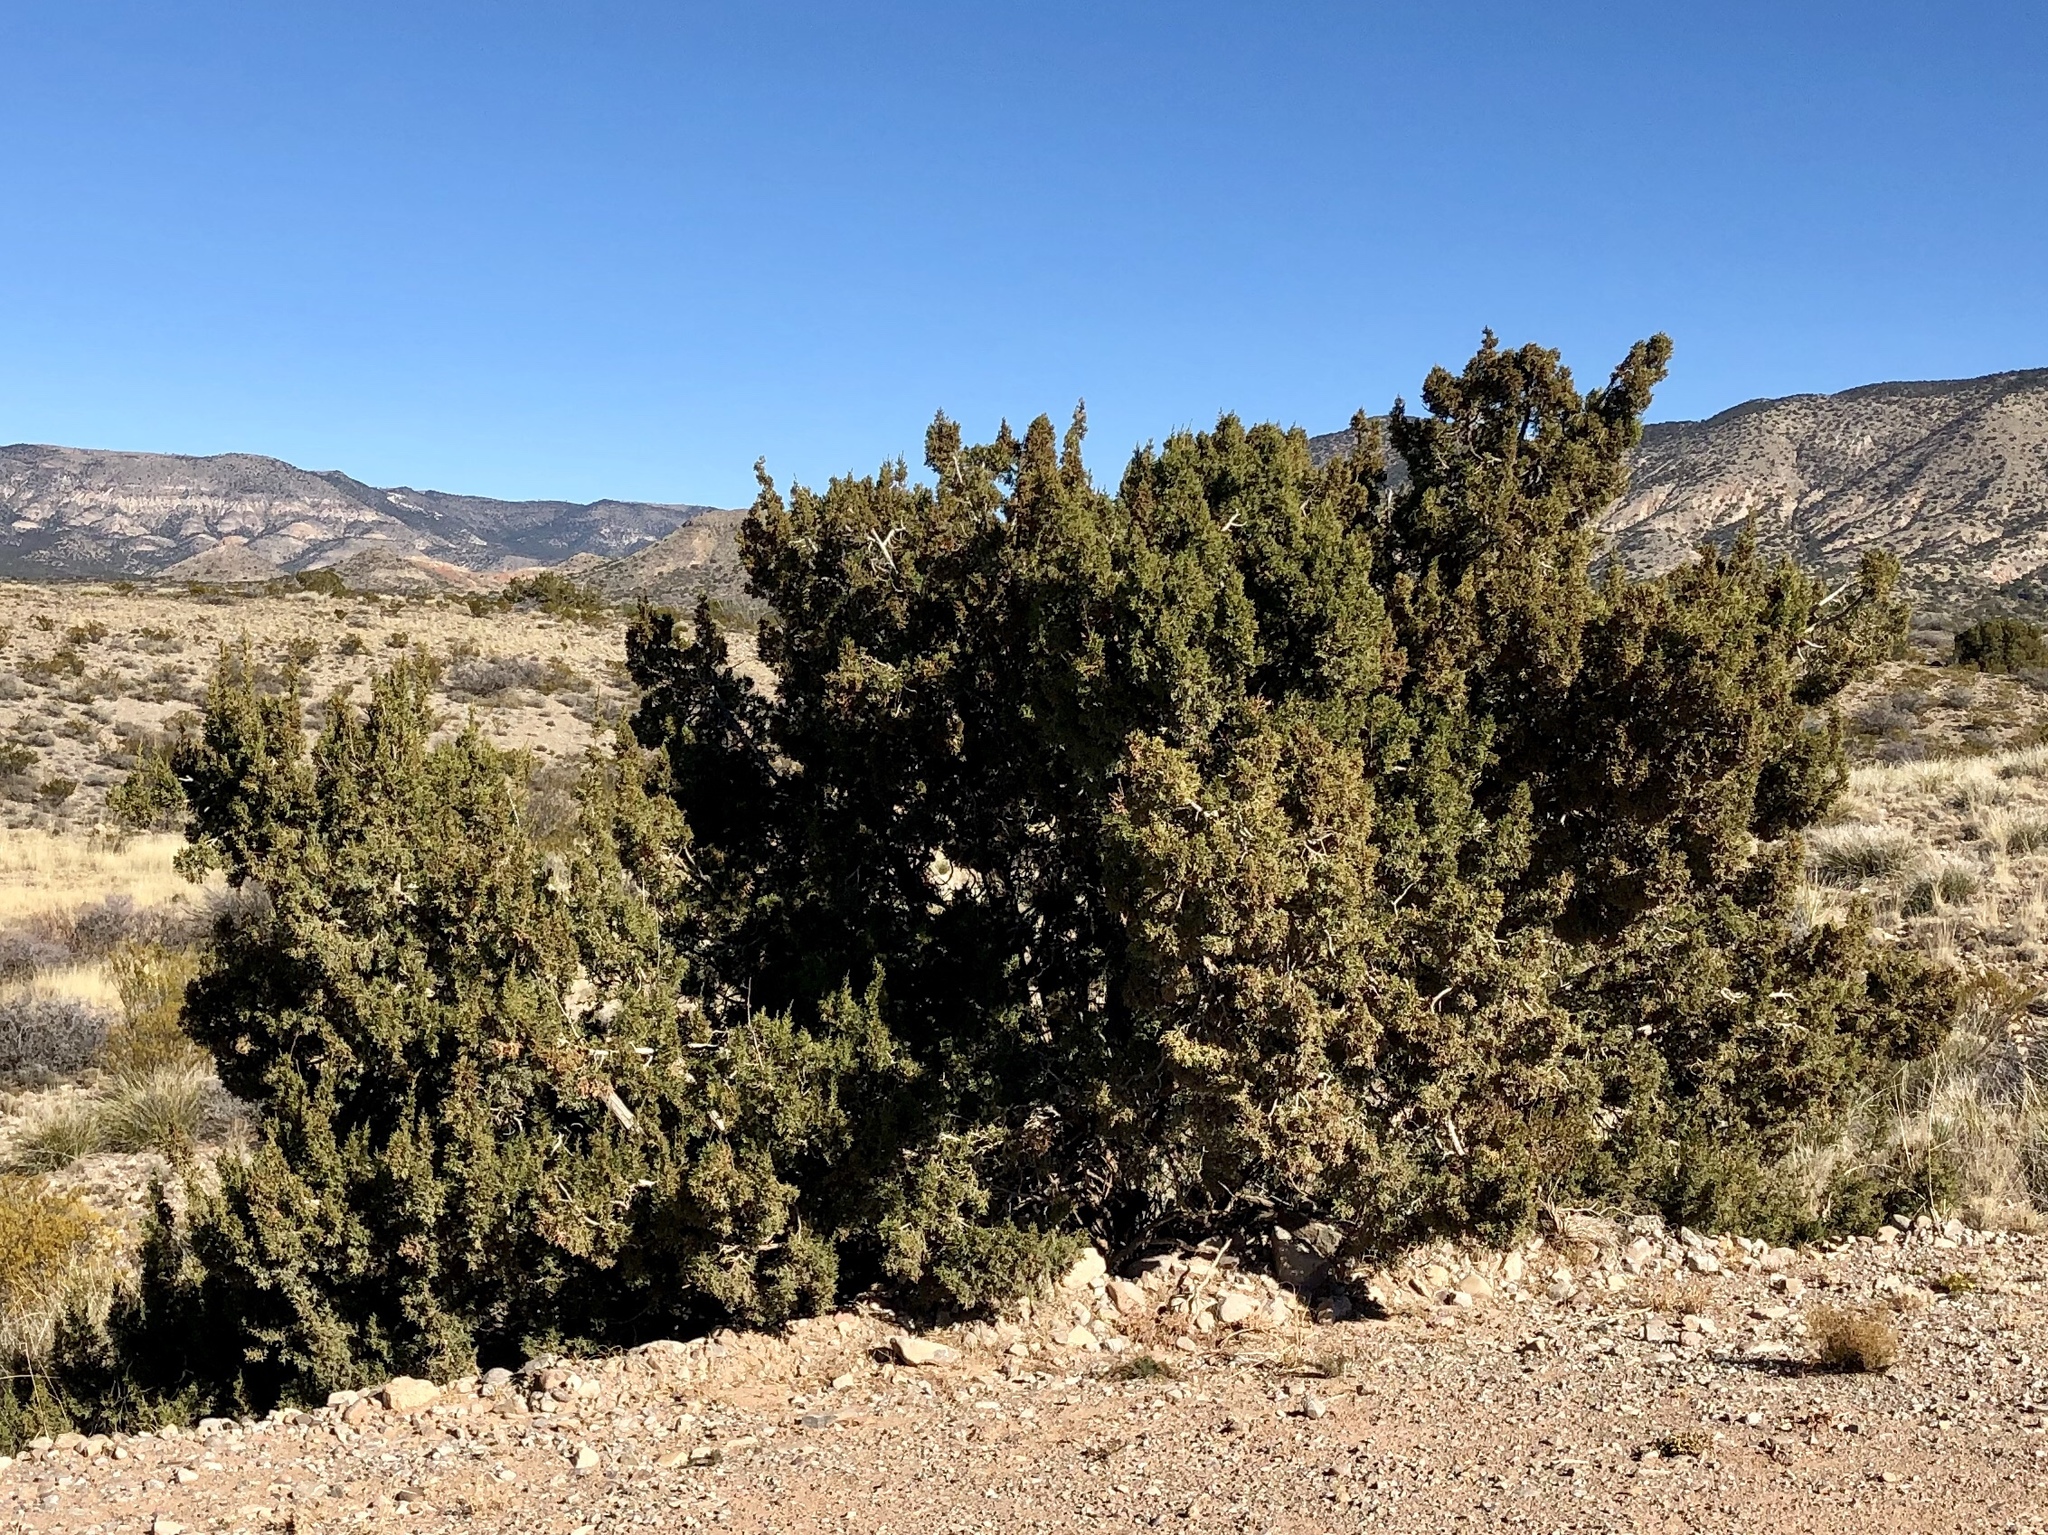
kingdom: Plantae
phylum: Tracheophyta
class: Pinopsida
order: Pinales
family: Cupressaceae
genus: Juniperus
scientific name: Juniperus monosperma
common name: One-seed juniper
